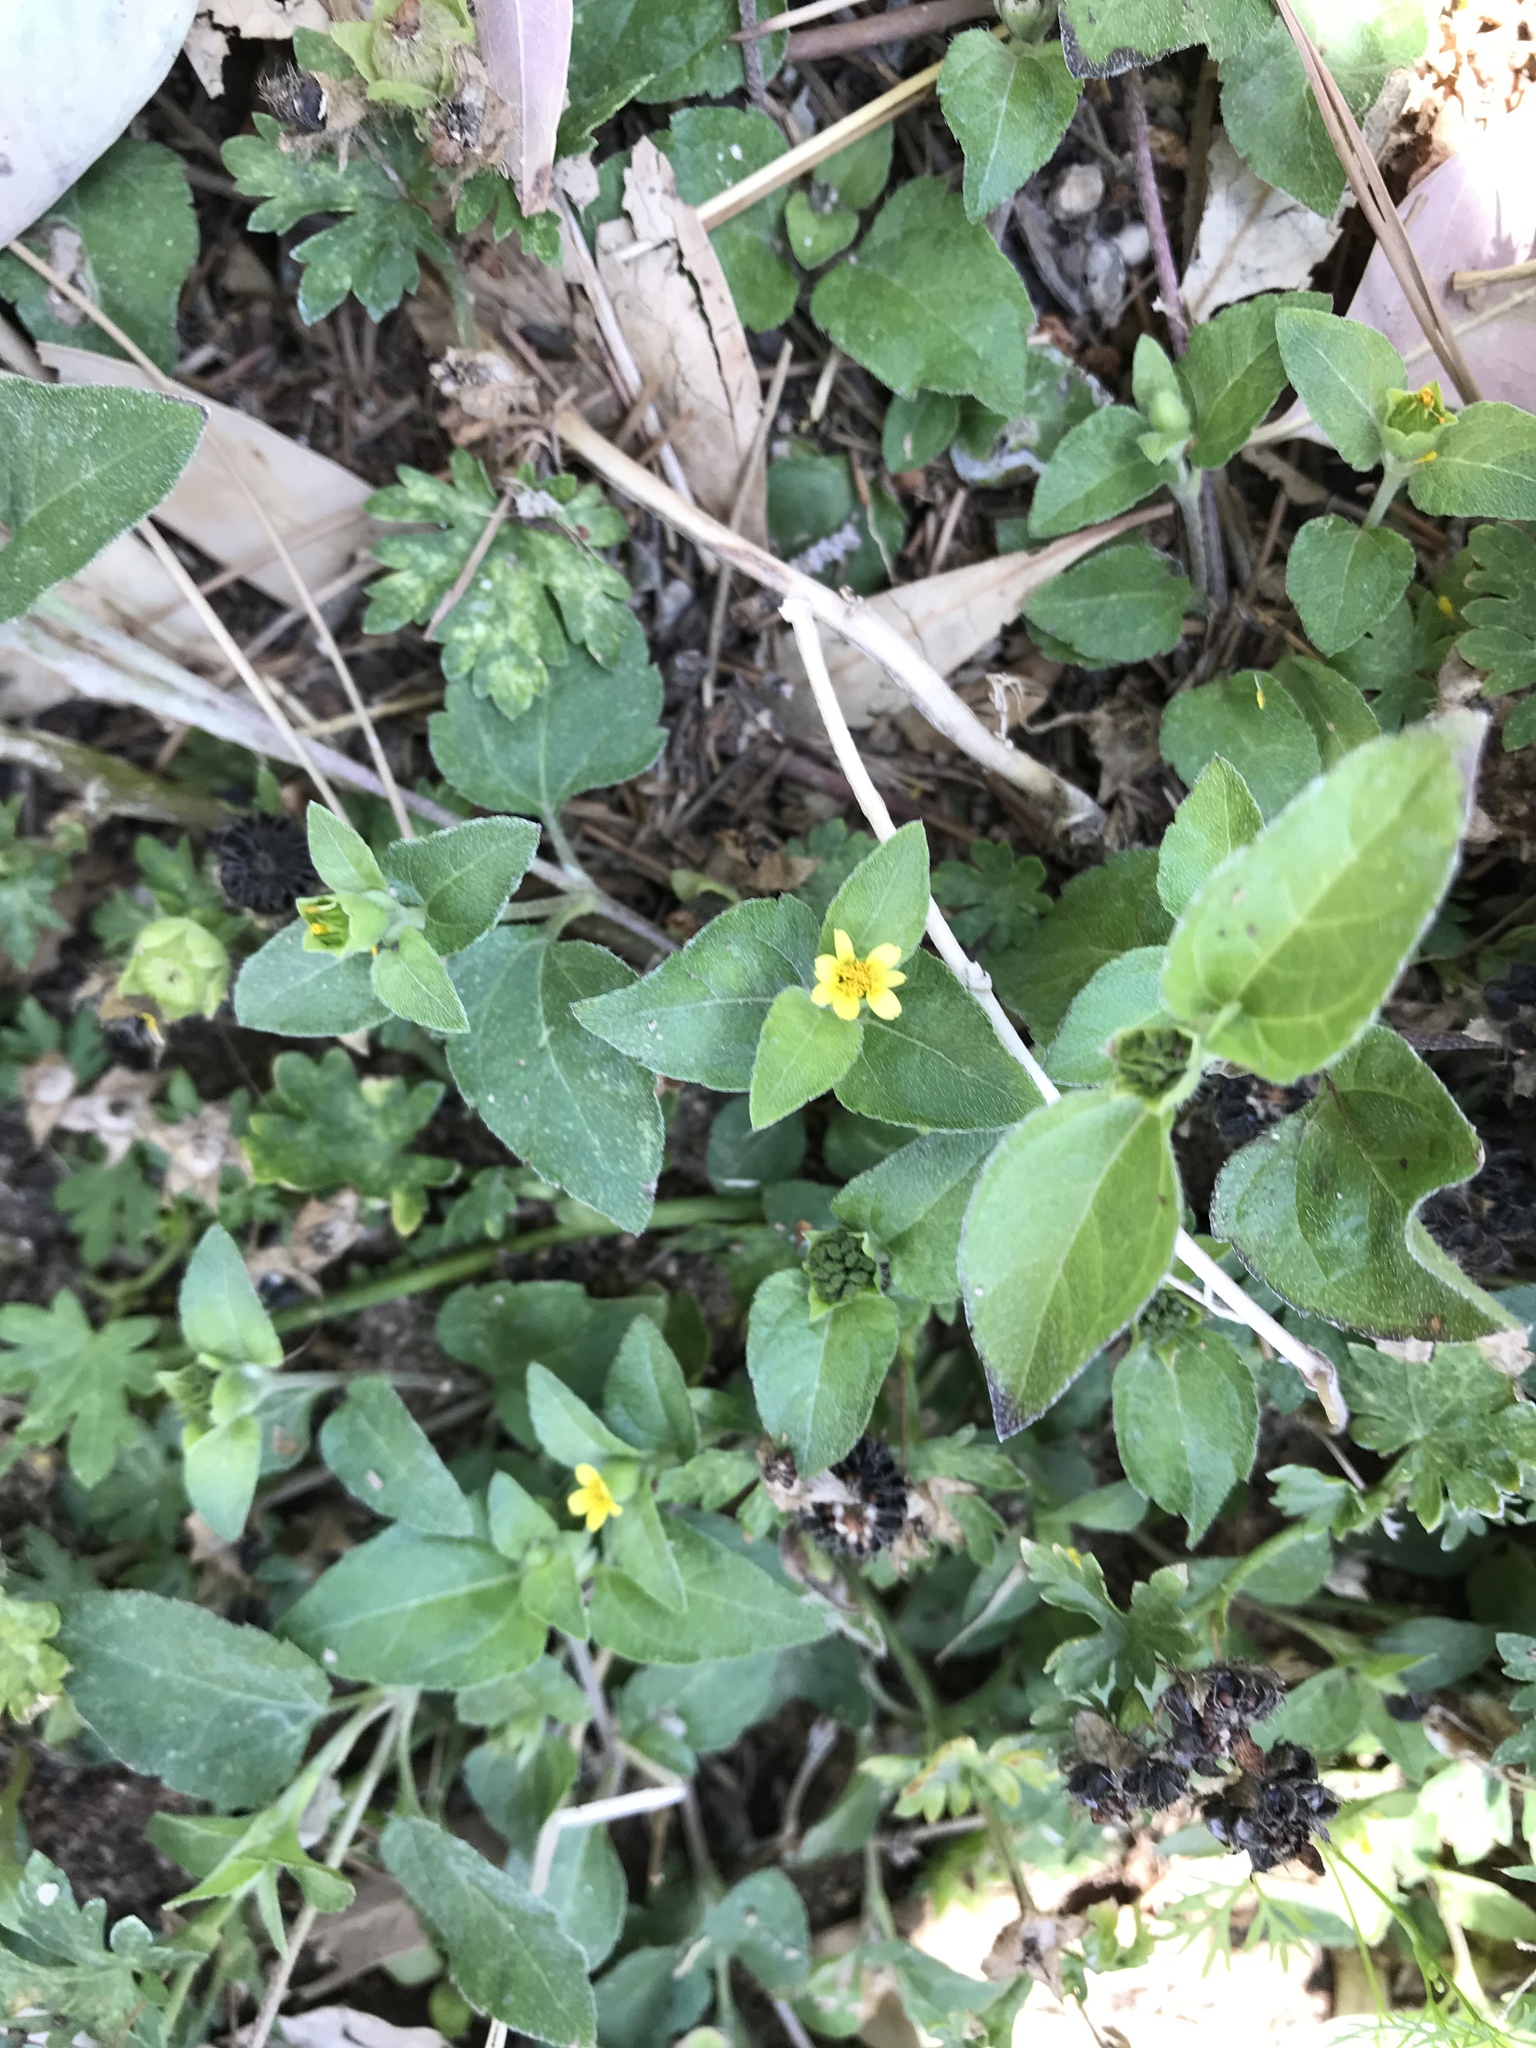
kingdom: Plantae
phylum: Tracheophyta
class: Magnoliopsida
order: Asterales
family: Asteraceae
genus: Calyptocarpus
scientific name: Calyptocarpus vialis
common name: Straggler daisy
